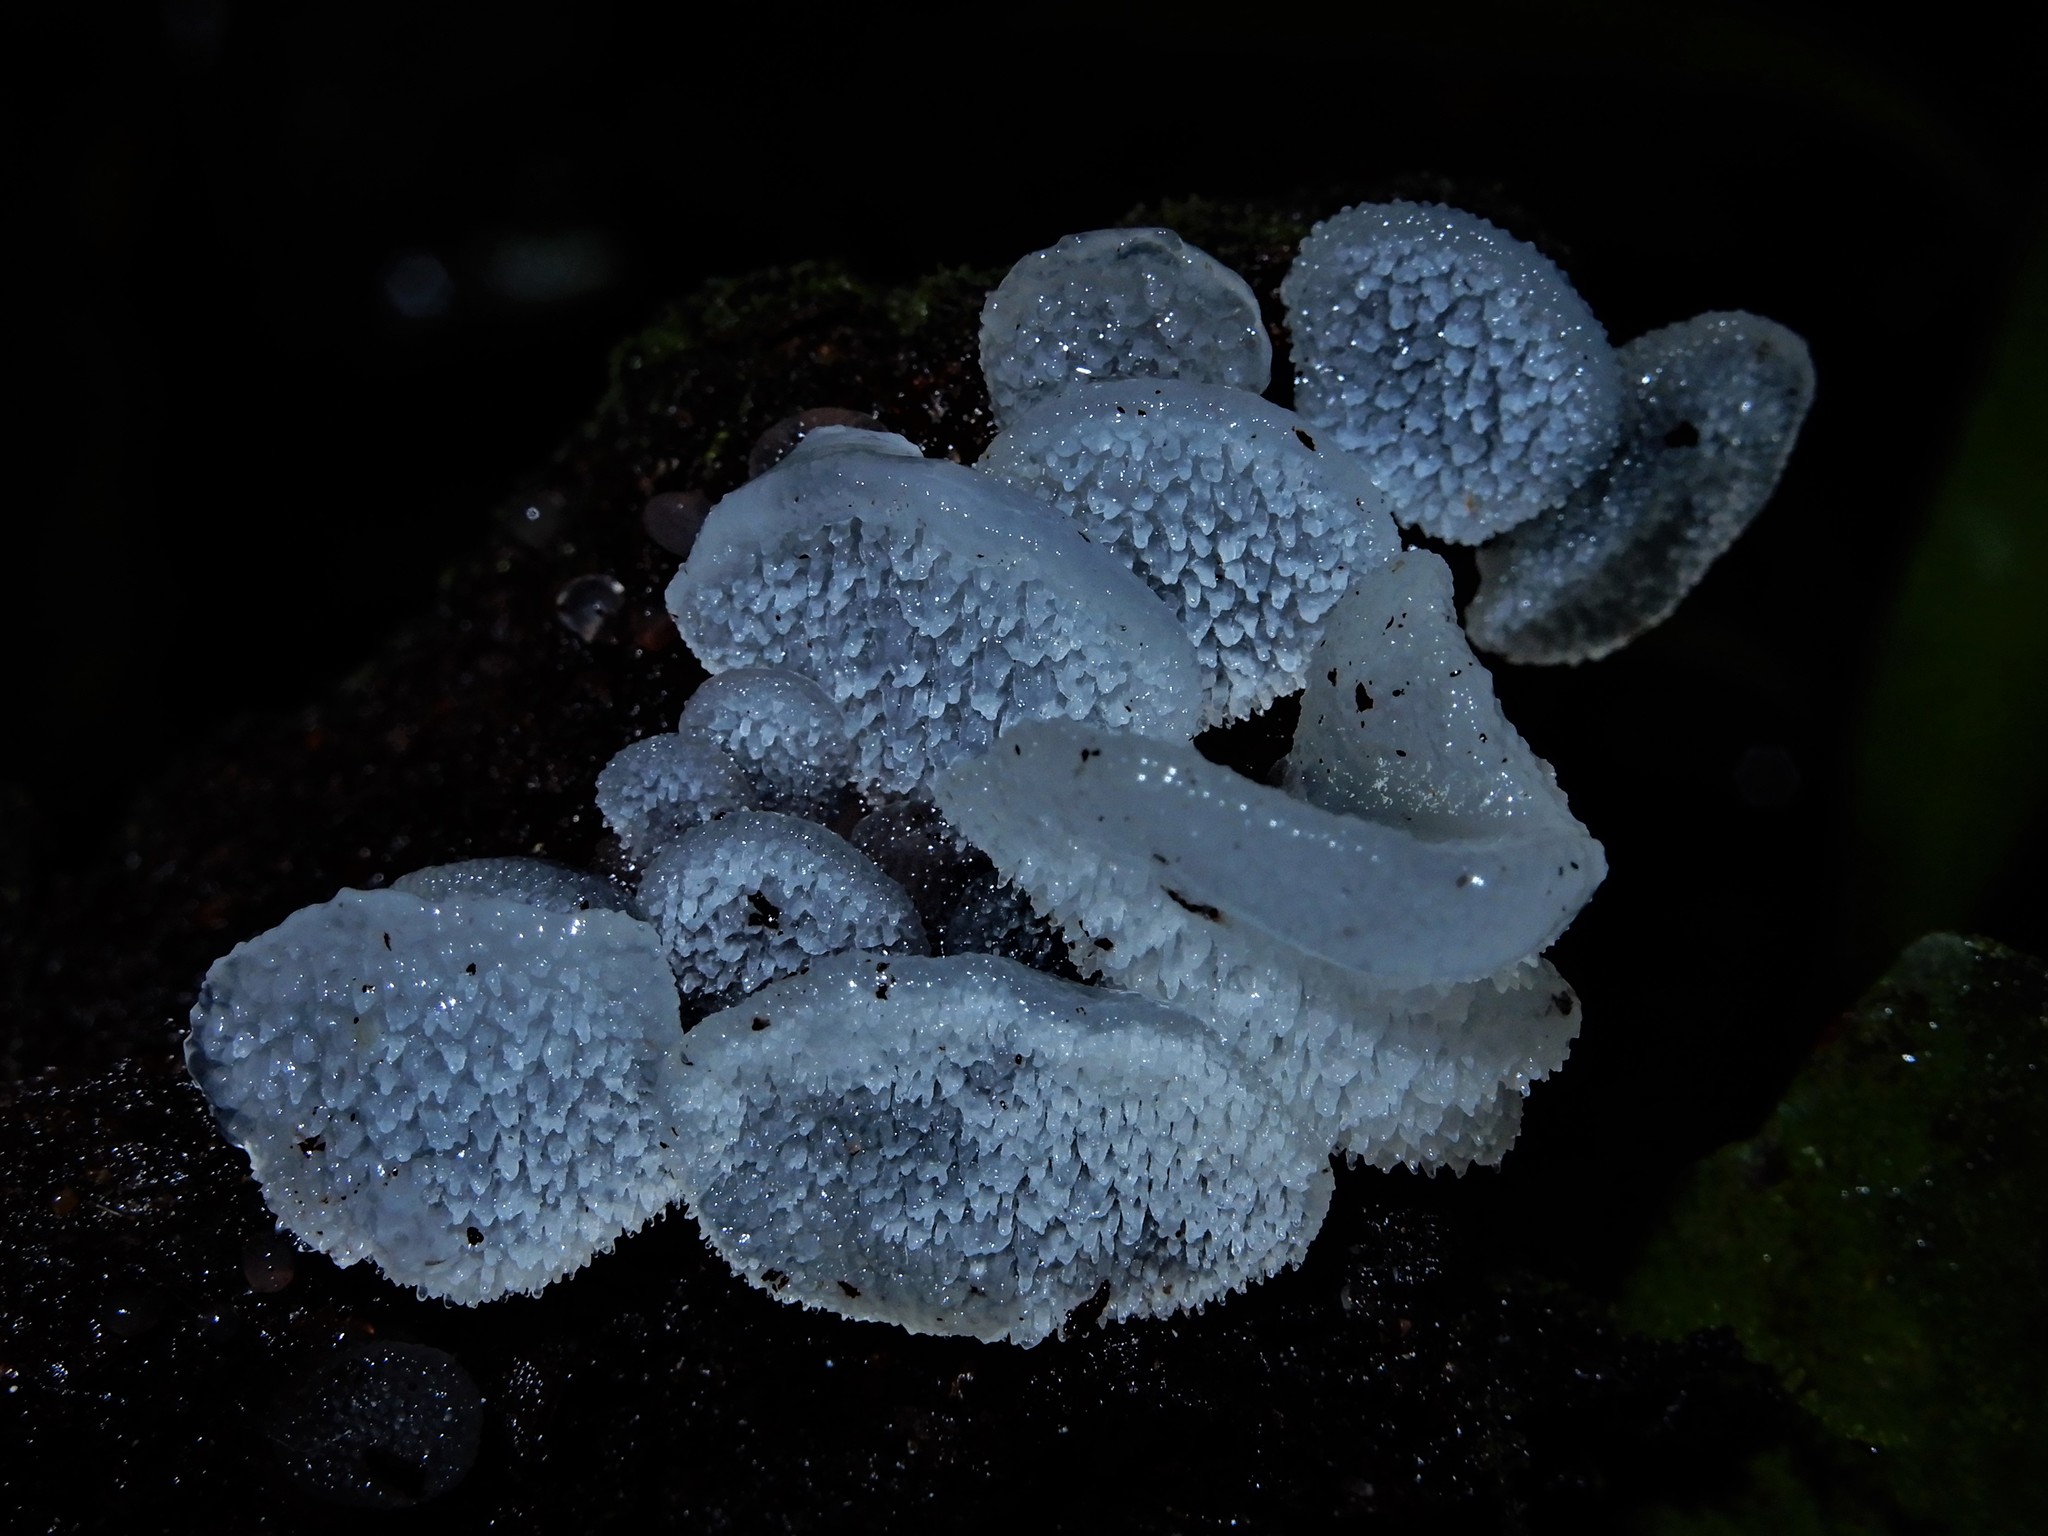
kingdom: Fungi
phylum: Basidiomycota
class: Agaricomycetes
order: Auriculariales
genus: Pseudohydnum
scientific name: Pseudohydnum orbiculare
